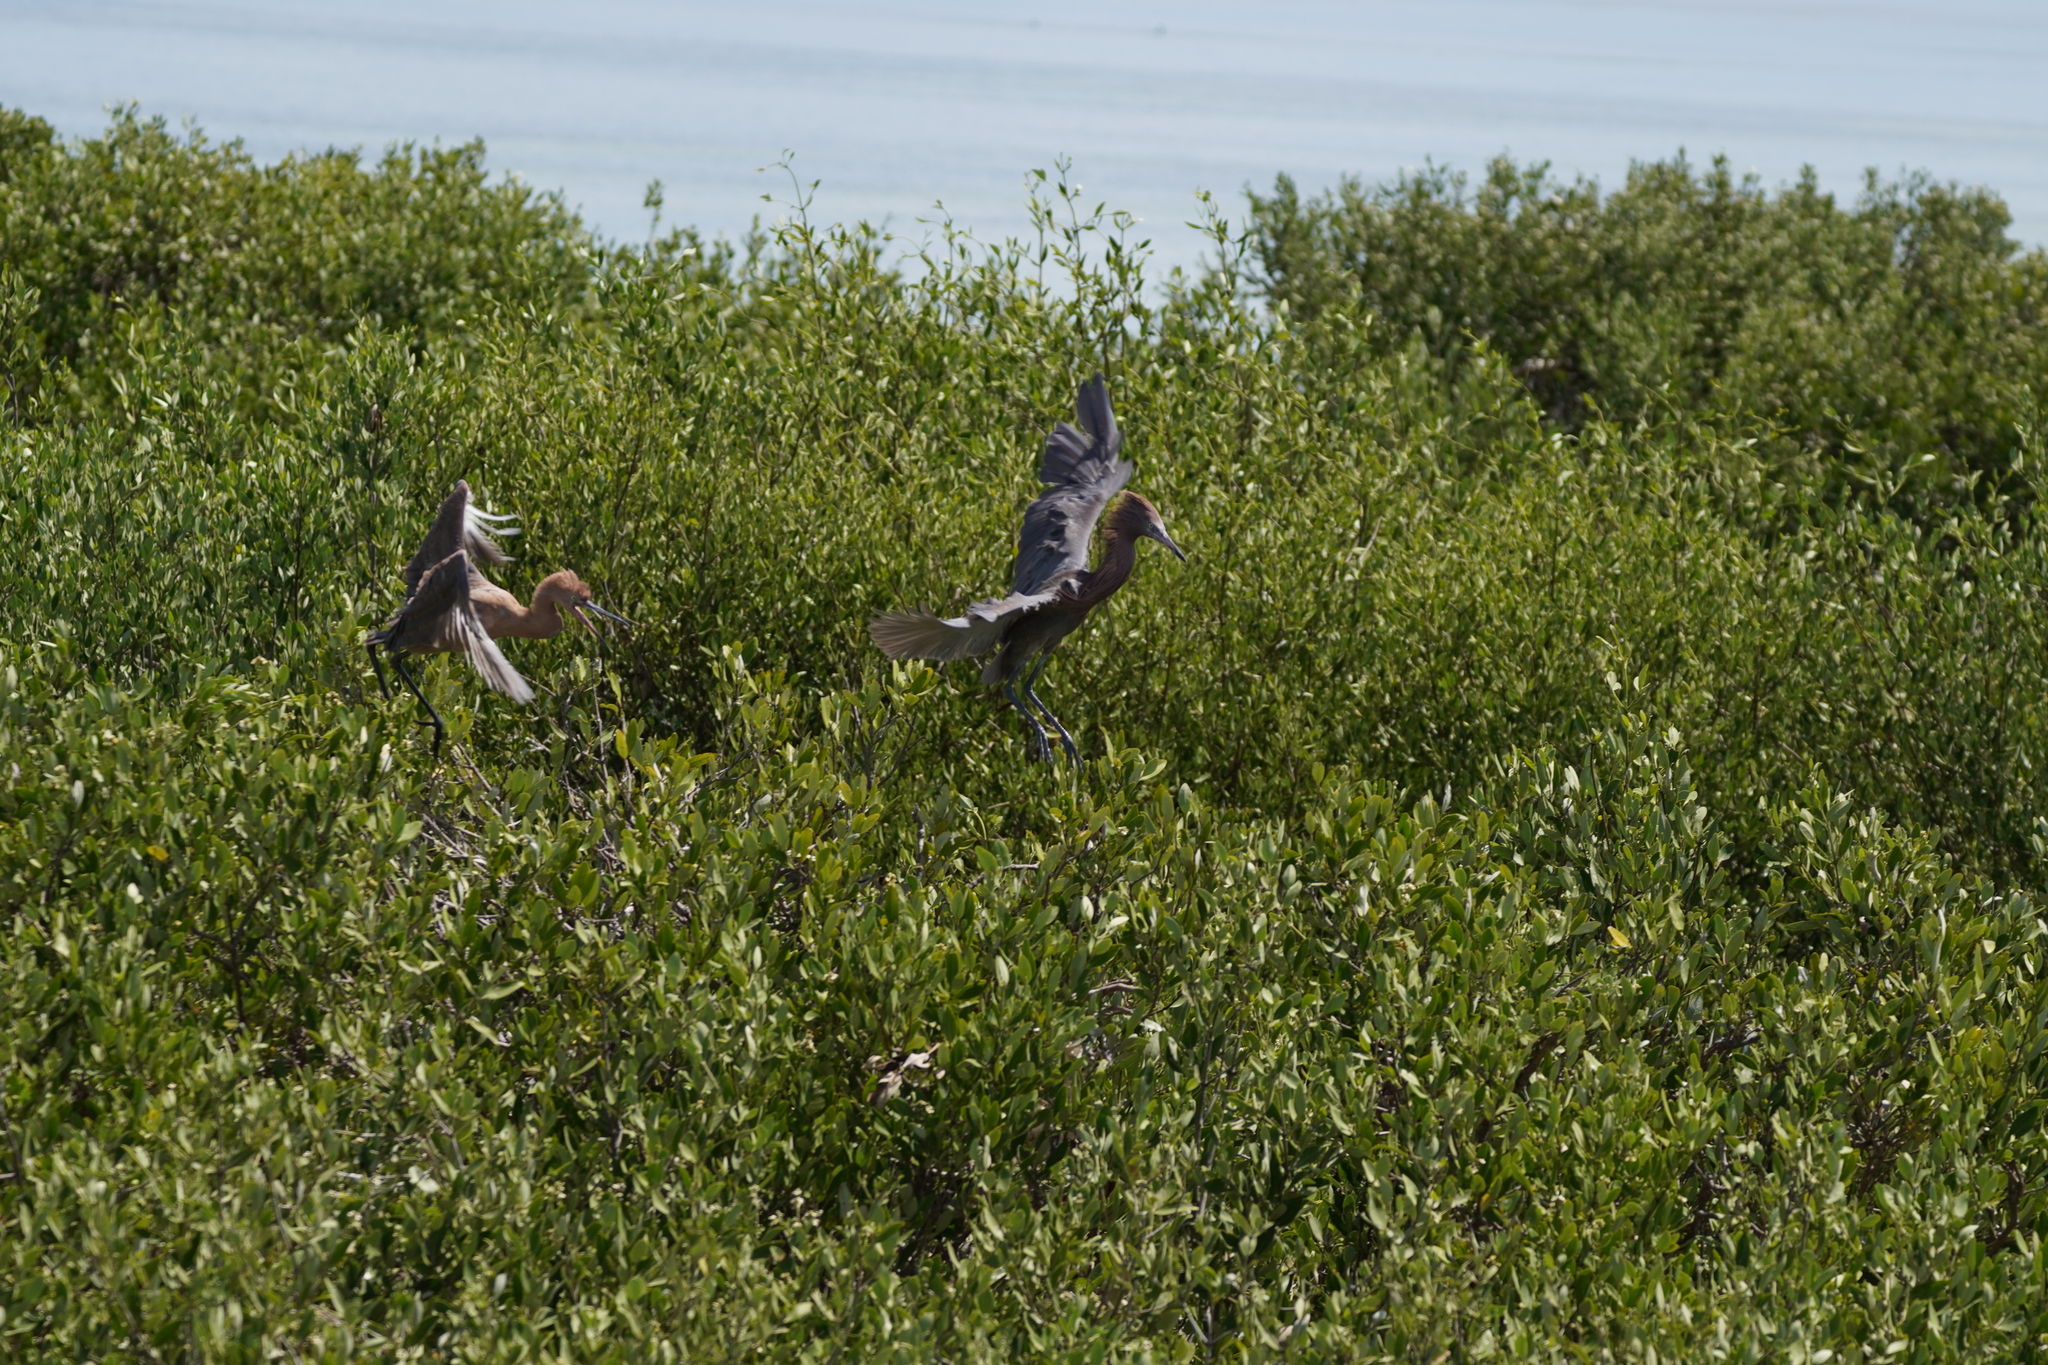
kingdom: Animalia
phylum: Chordata
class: Aves
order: Pelecaniformes
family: Ardeidae
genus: Egretta
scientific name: Egretta rufescens
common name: Reddish egret
